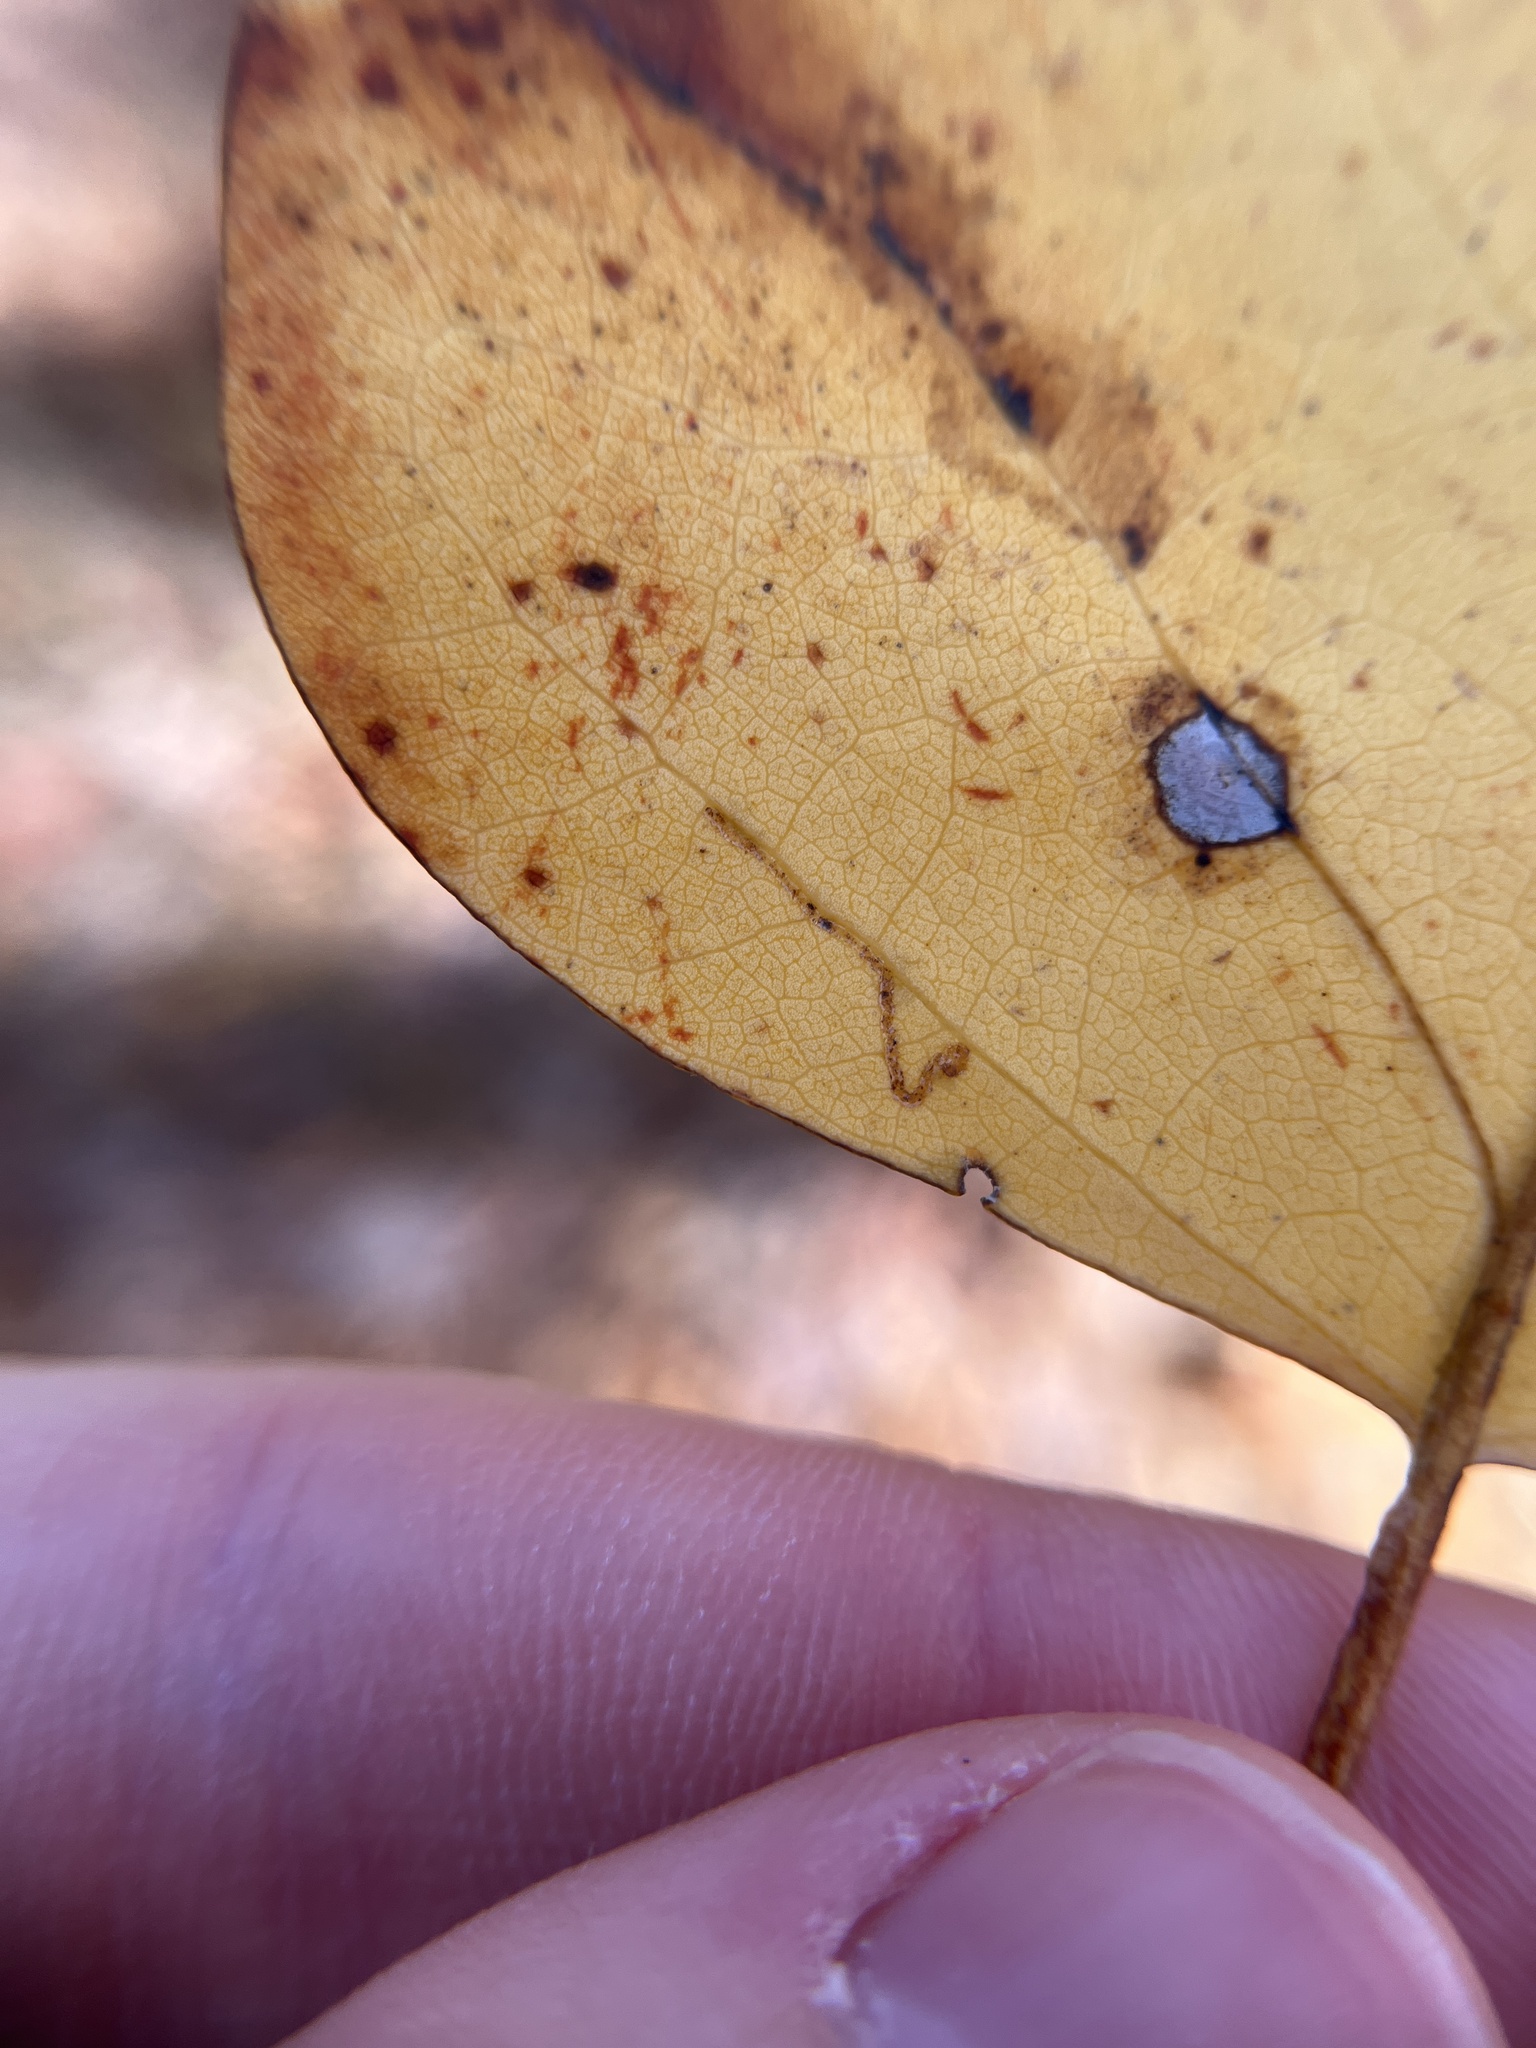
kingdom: Animalia
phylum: Arthropoda
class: Insecta
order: Lepidoptera
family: Gracillariidae
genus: Phyllocnistis
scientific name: Phyllocnistis liriodendronella
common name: Tulip tree leaf miner
